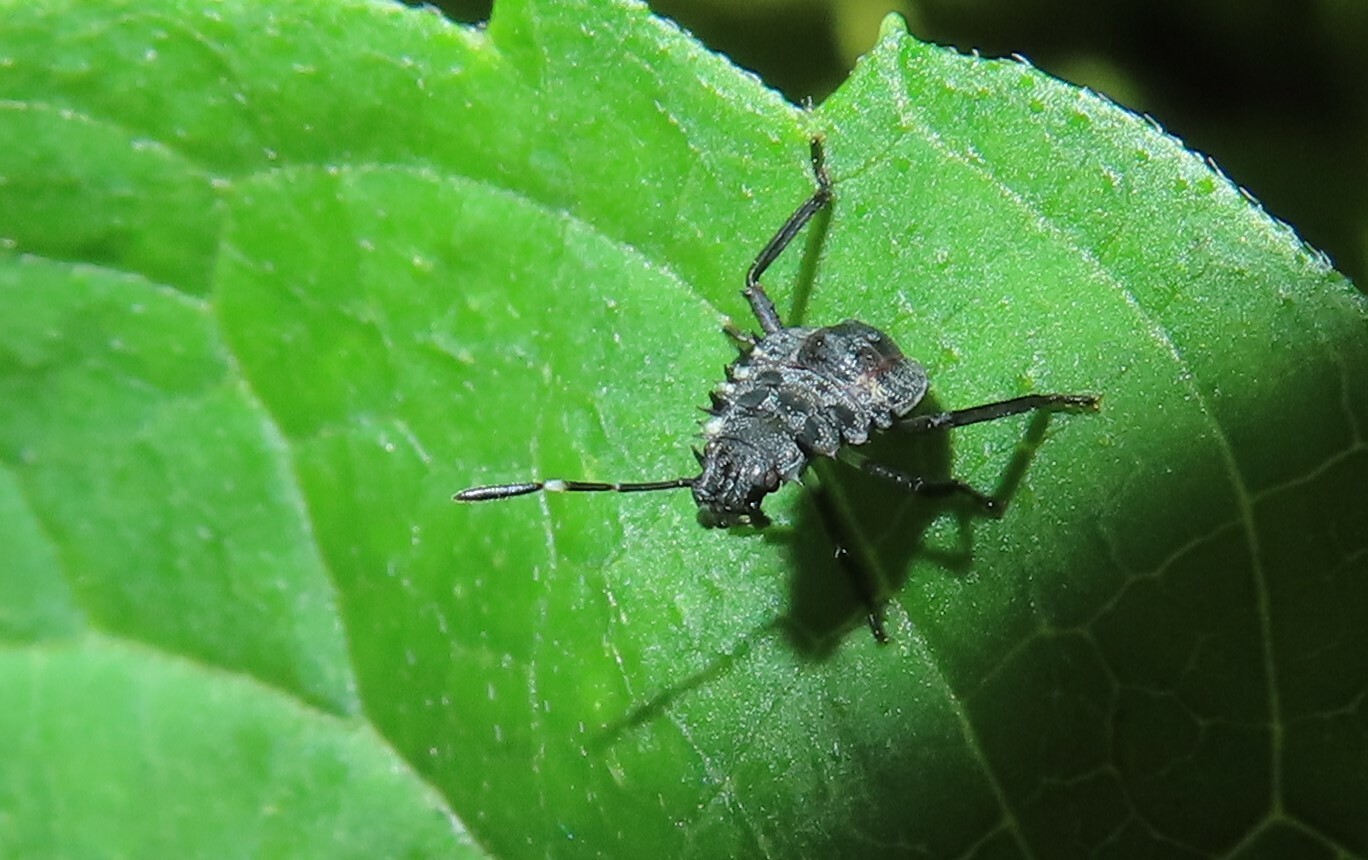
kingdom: Animalia
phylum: Arthropoda
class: Insecta
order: Hemiptera
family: Pentatomidae
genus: Halyomorpha
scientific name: Halyomorpha halys
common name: Brown marmorated stink bug
